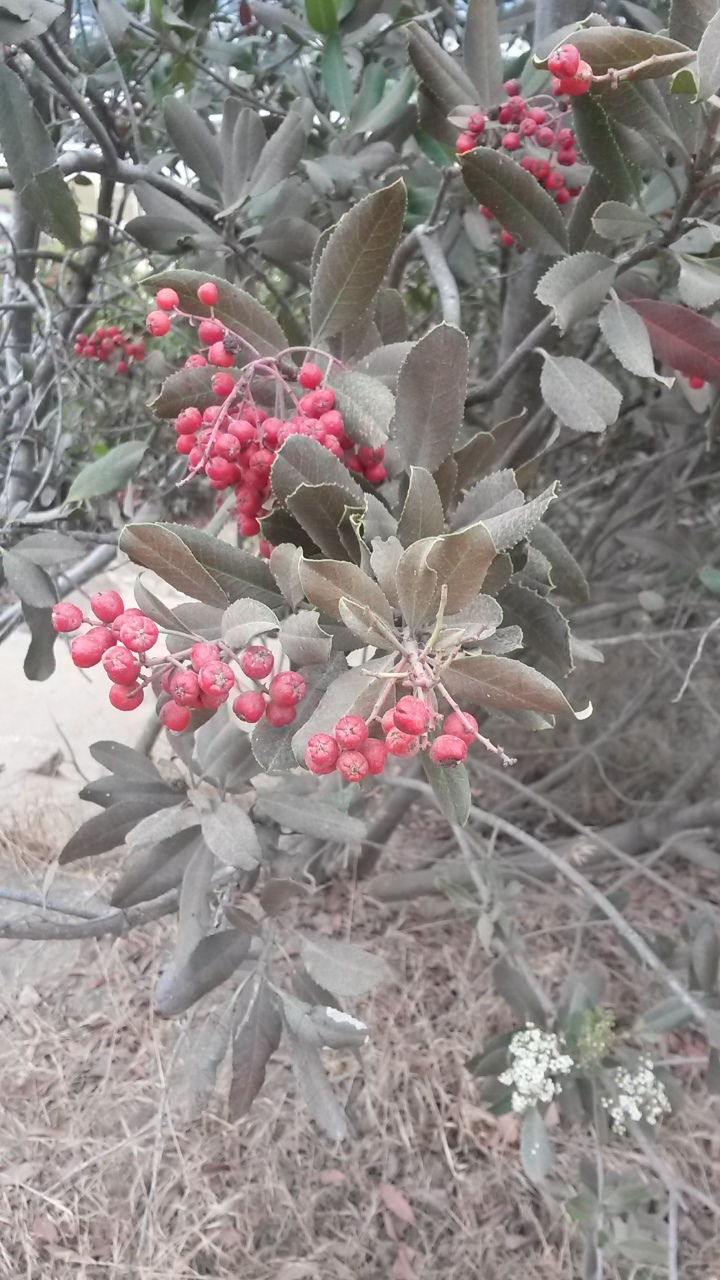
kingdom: Plantae
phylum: Tracheophyta
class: Magnoliopsida
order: Rosales
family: Rosaceae
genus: Heteromeles
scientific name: Heteromeles arbutifolia
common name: California-holly
